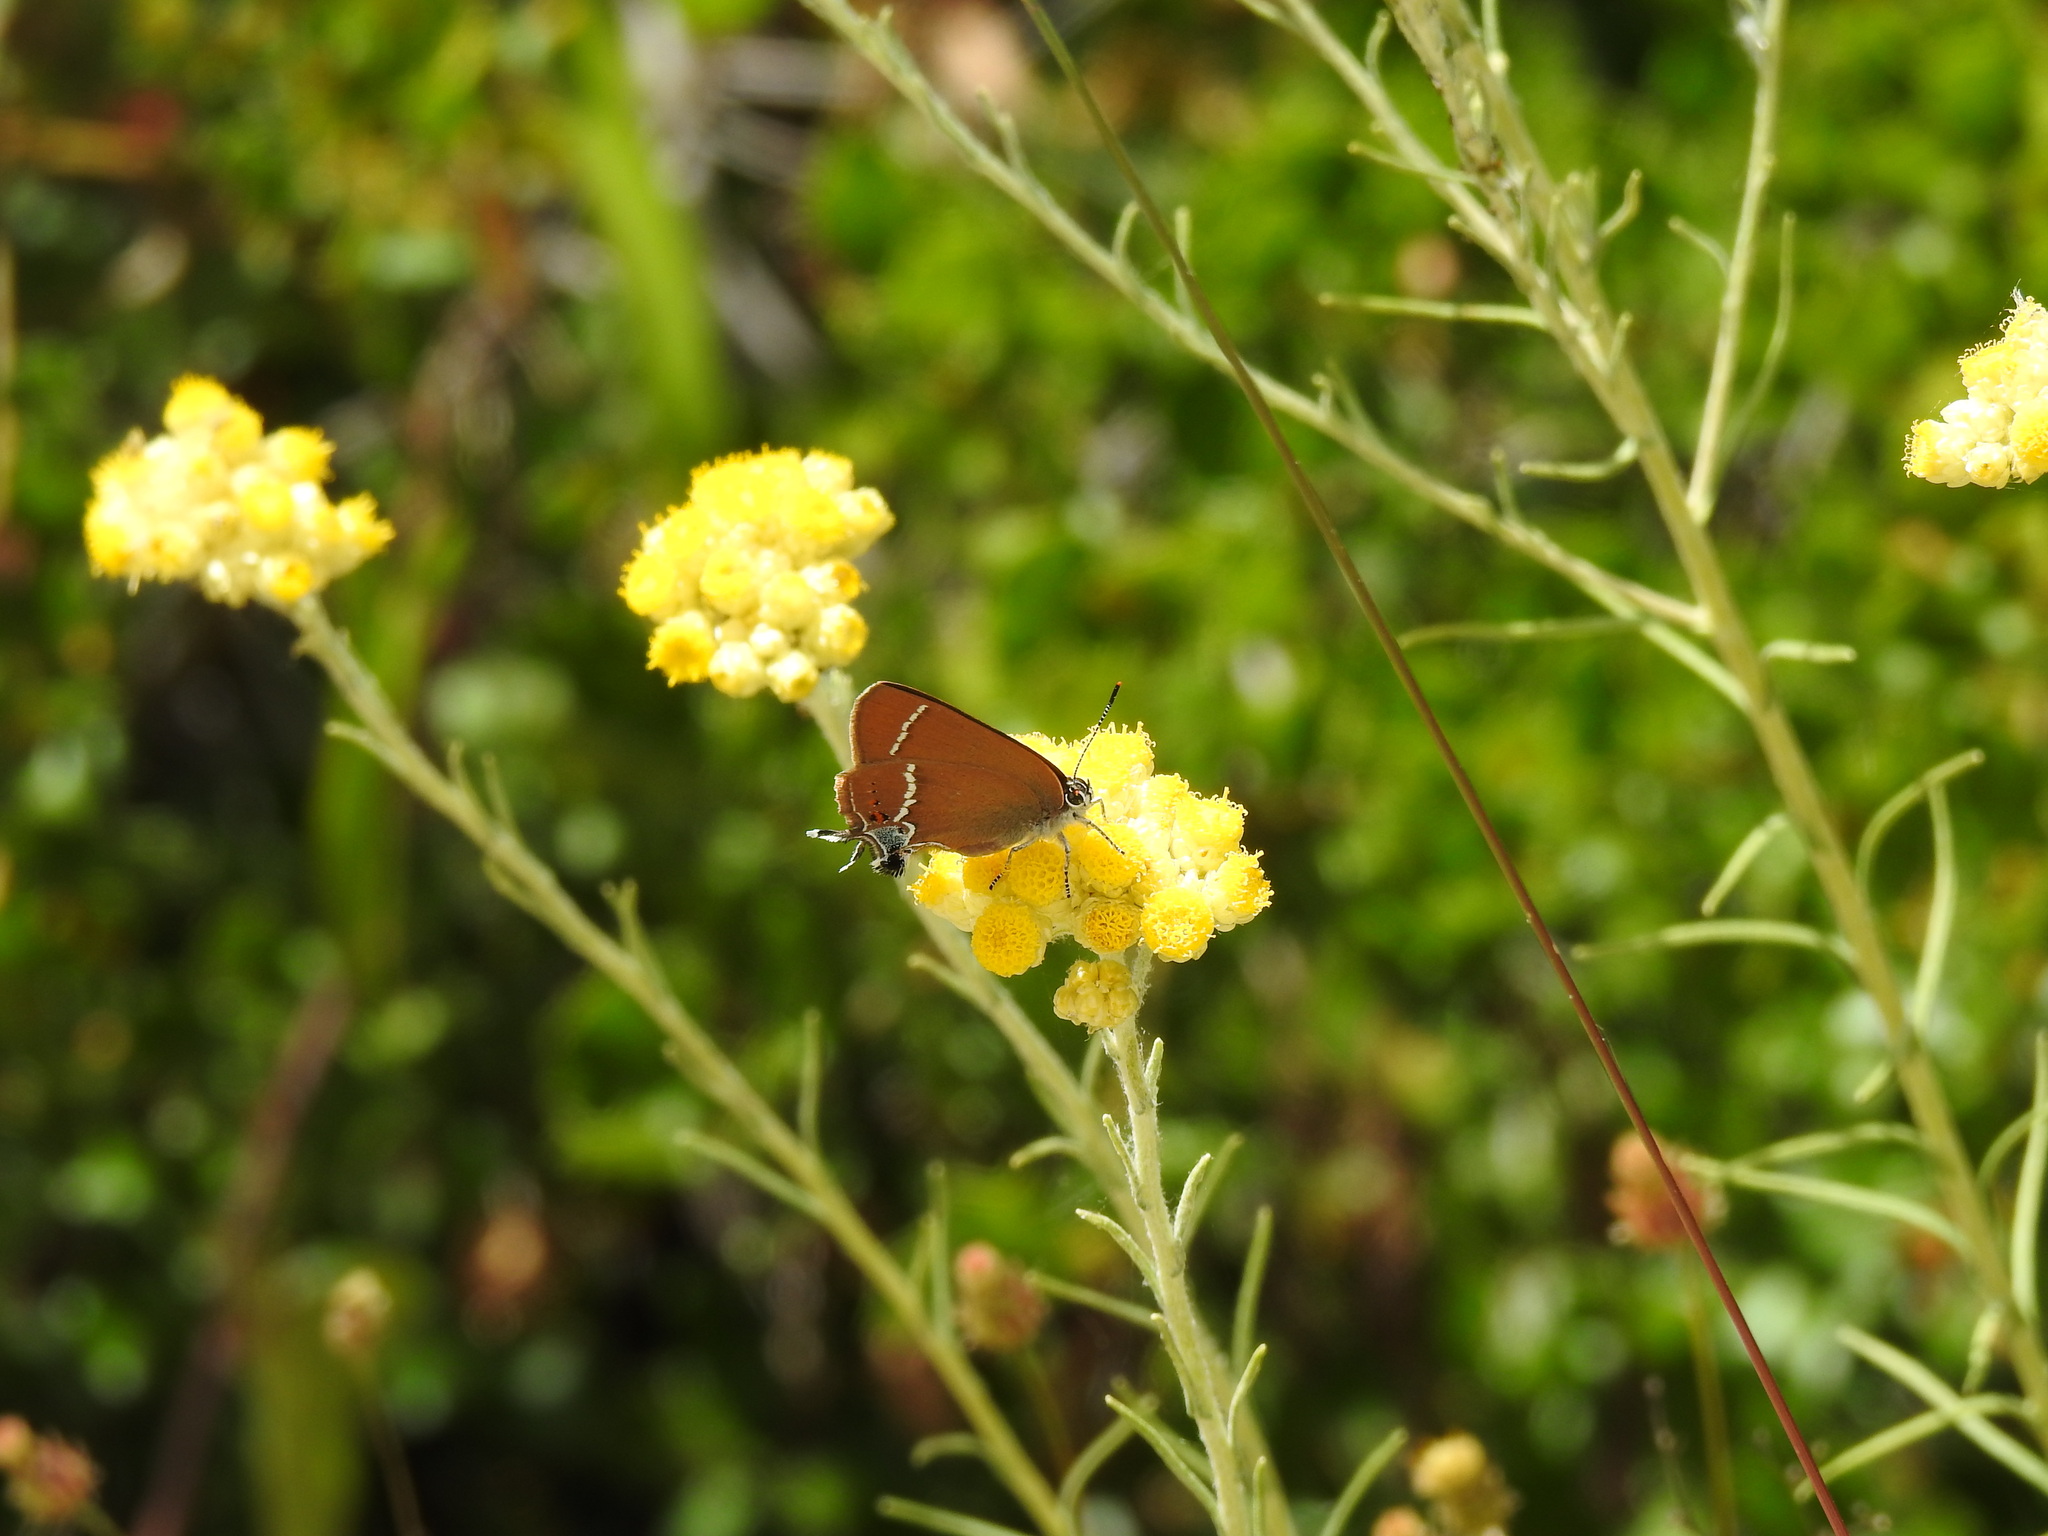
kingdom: Animalia
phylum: Arthropoda
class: Insecta
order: Lepidoptera
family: Lycaenidae
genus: Tuttiola
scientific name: Tuttiola spini
